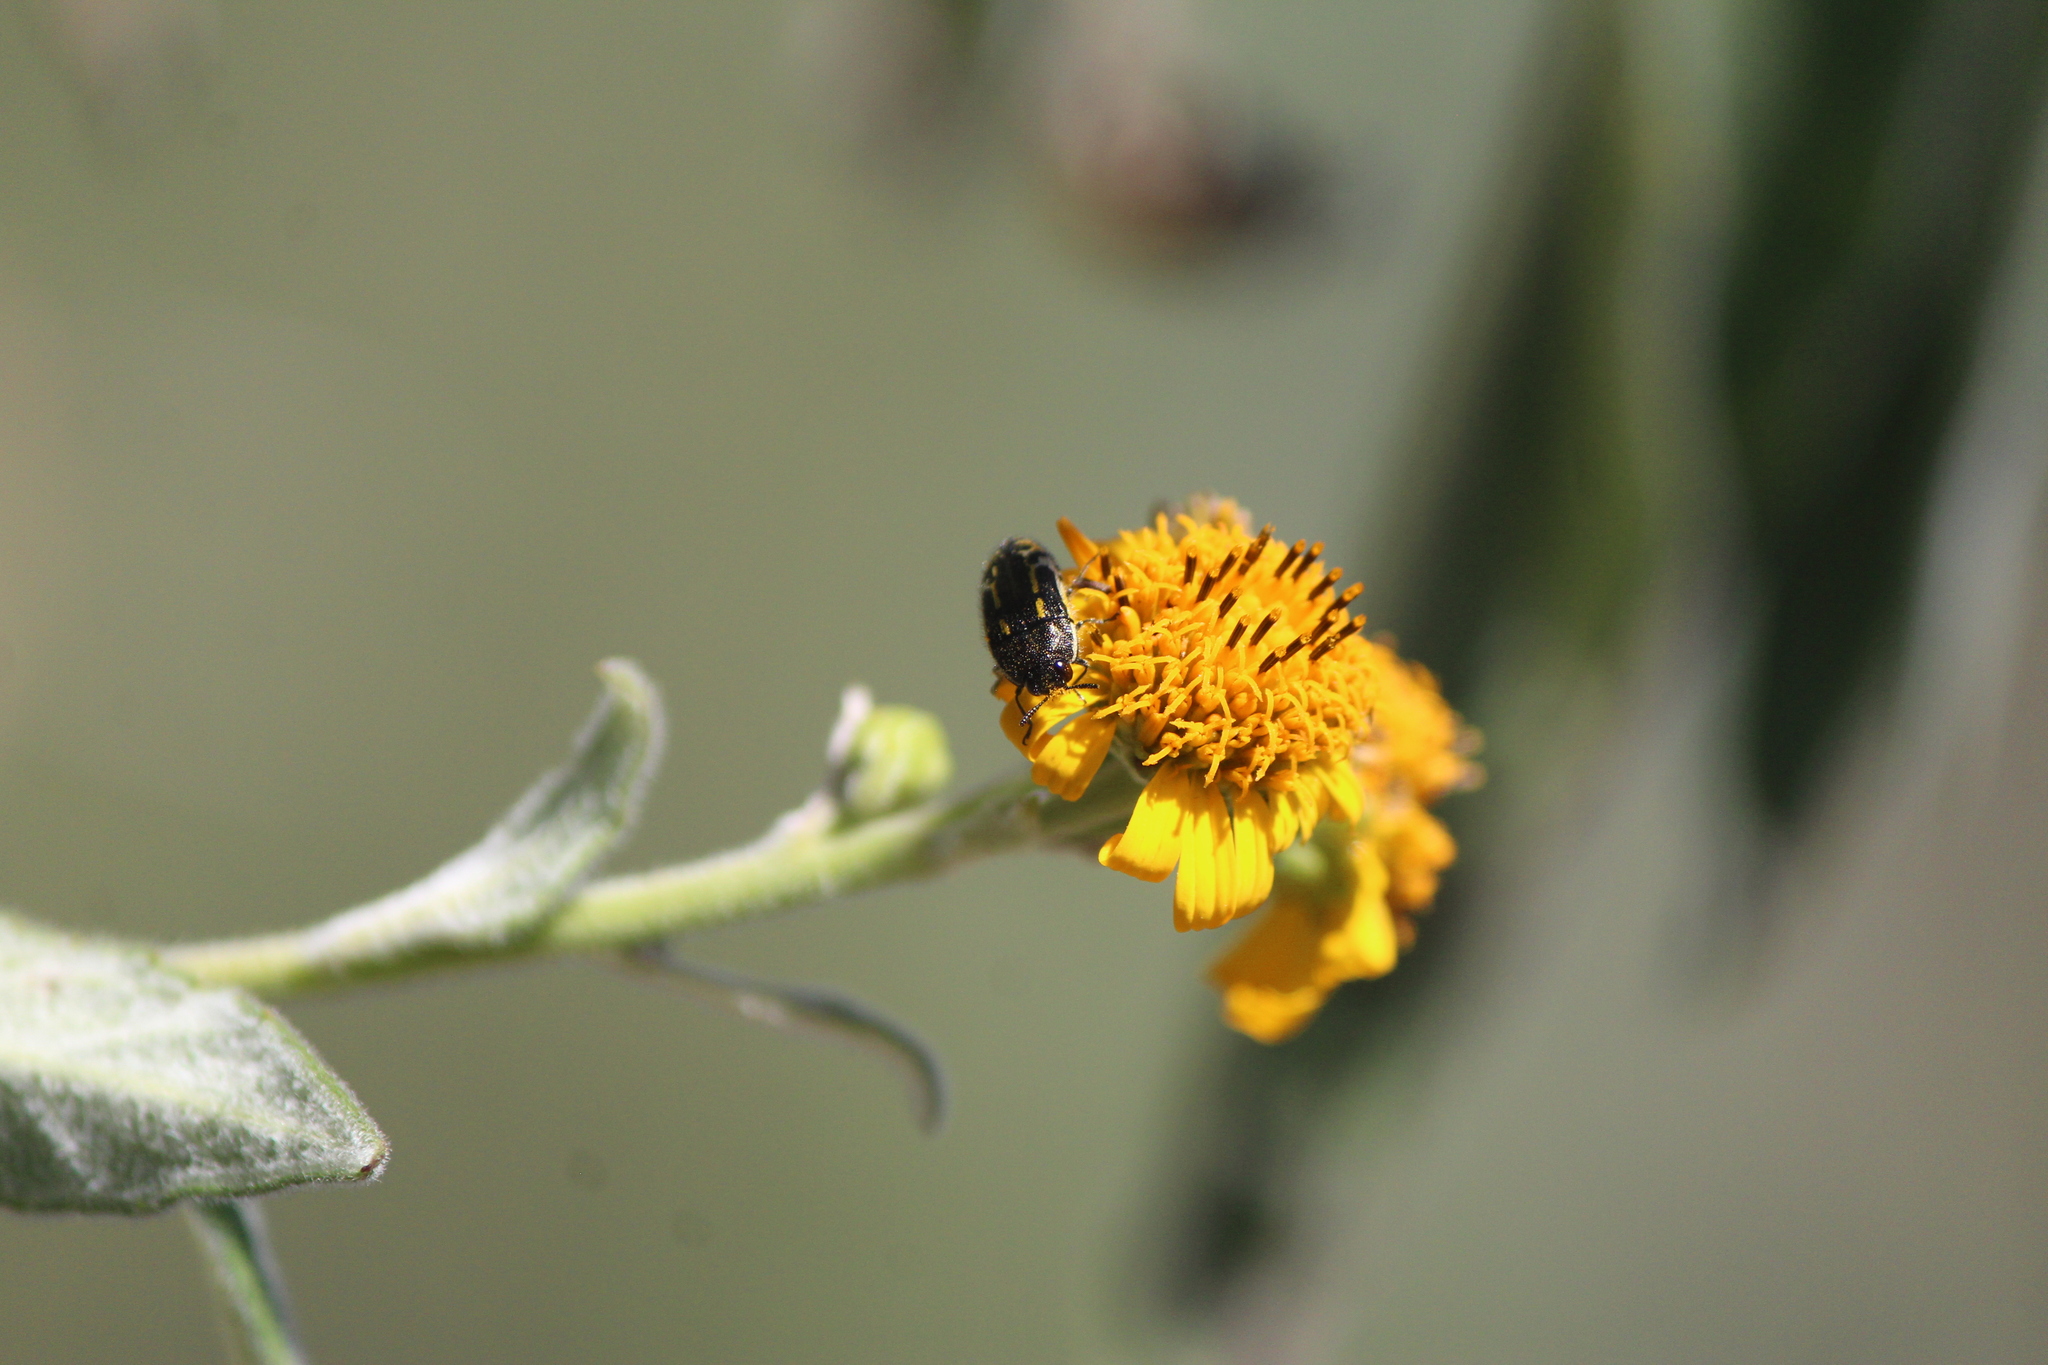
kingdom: Animalia
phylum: Arthropoda
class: Insecta
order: Coleoptera
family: Buprestidae
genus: Acmaeodera
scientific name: Acmaeodera scalaris
